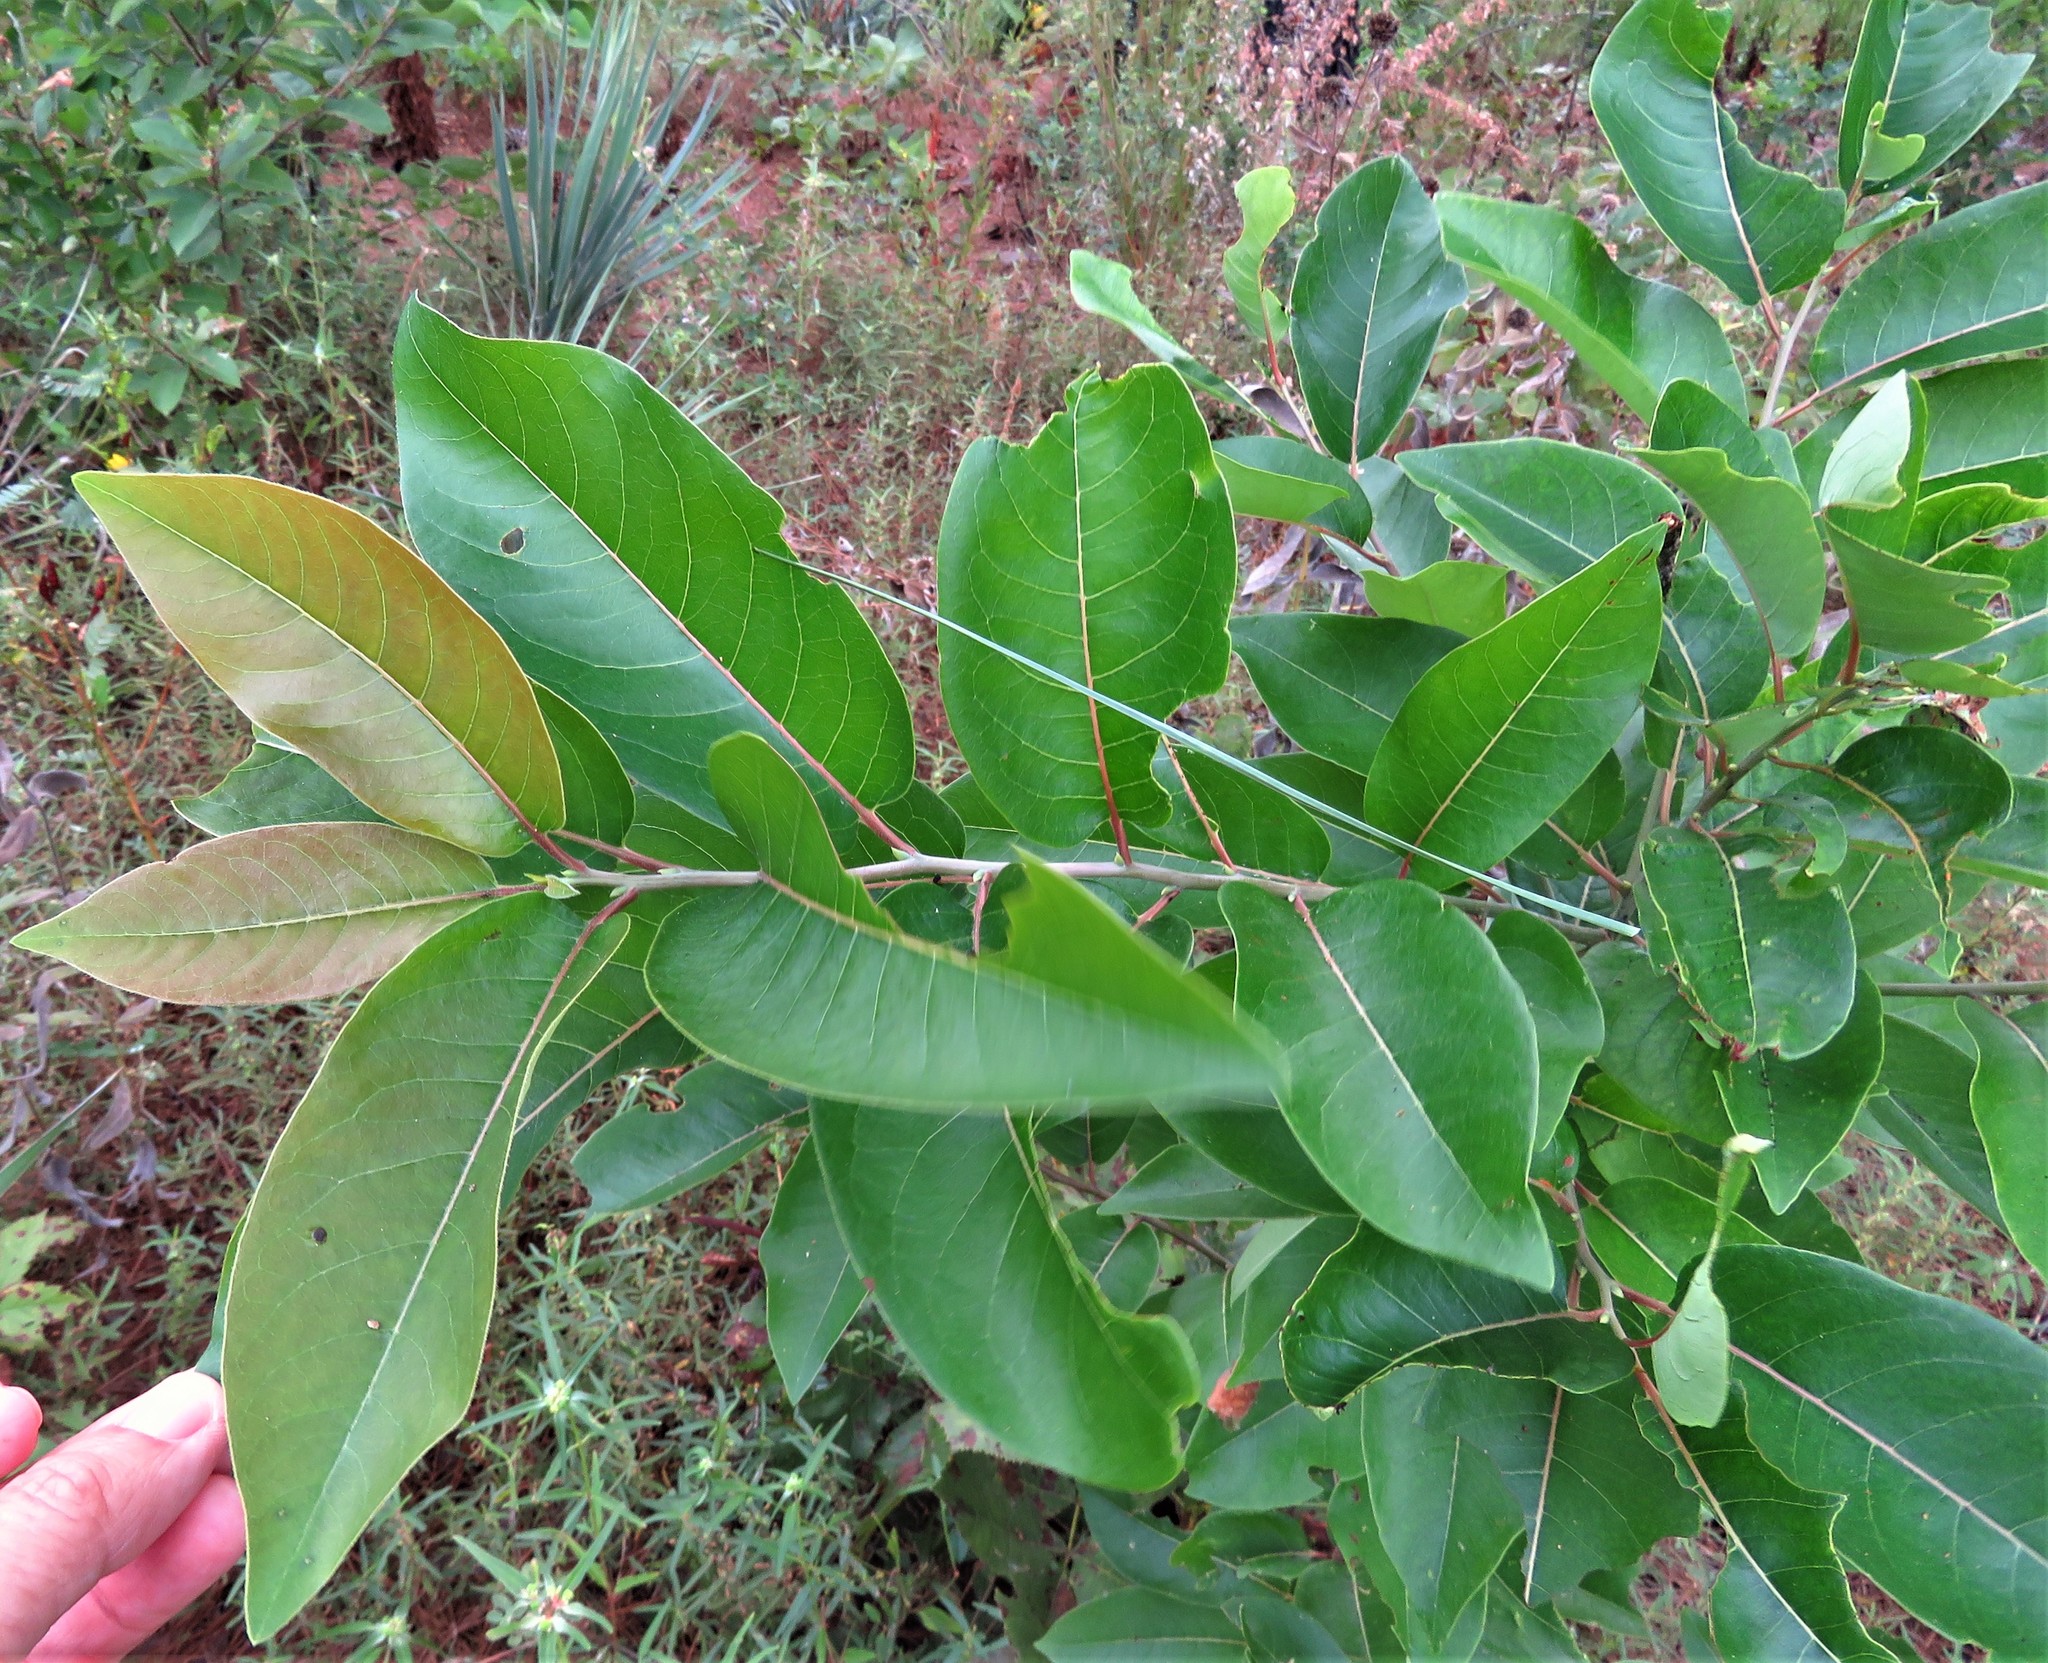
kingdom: Plantae
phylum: Tracheophyta
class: Magnoliopsida
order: Ericales
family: Ebenaceae
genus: Diospyros
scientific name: Diospyros virginiana
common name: Persimmon
